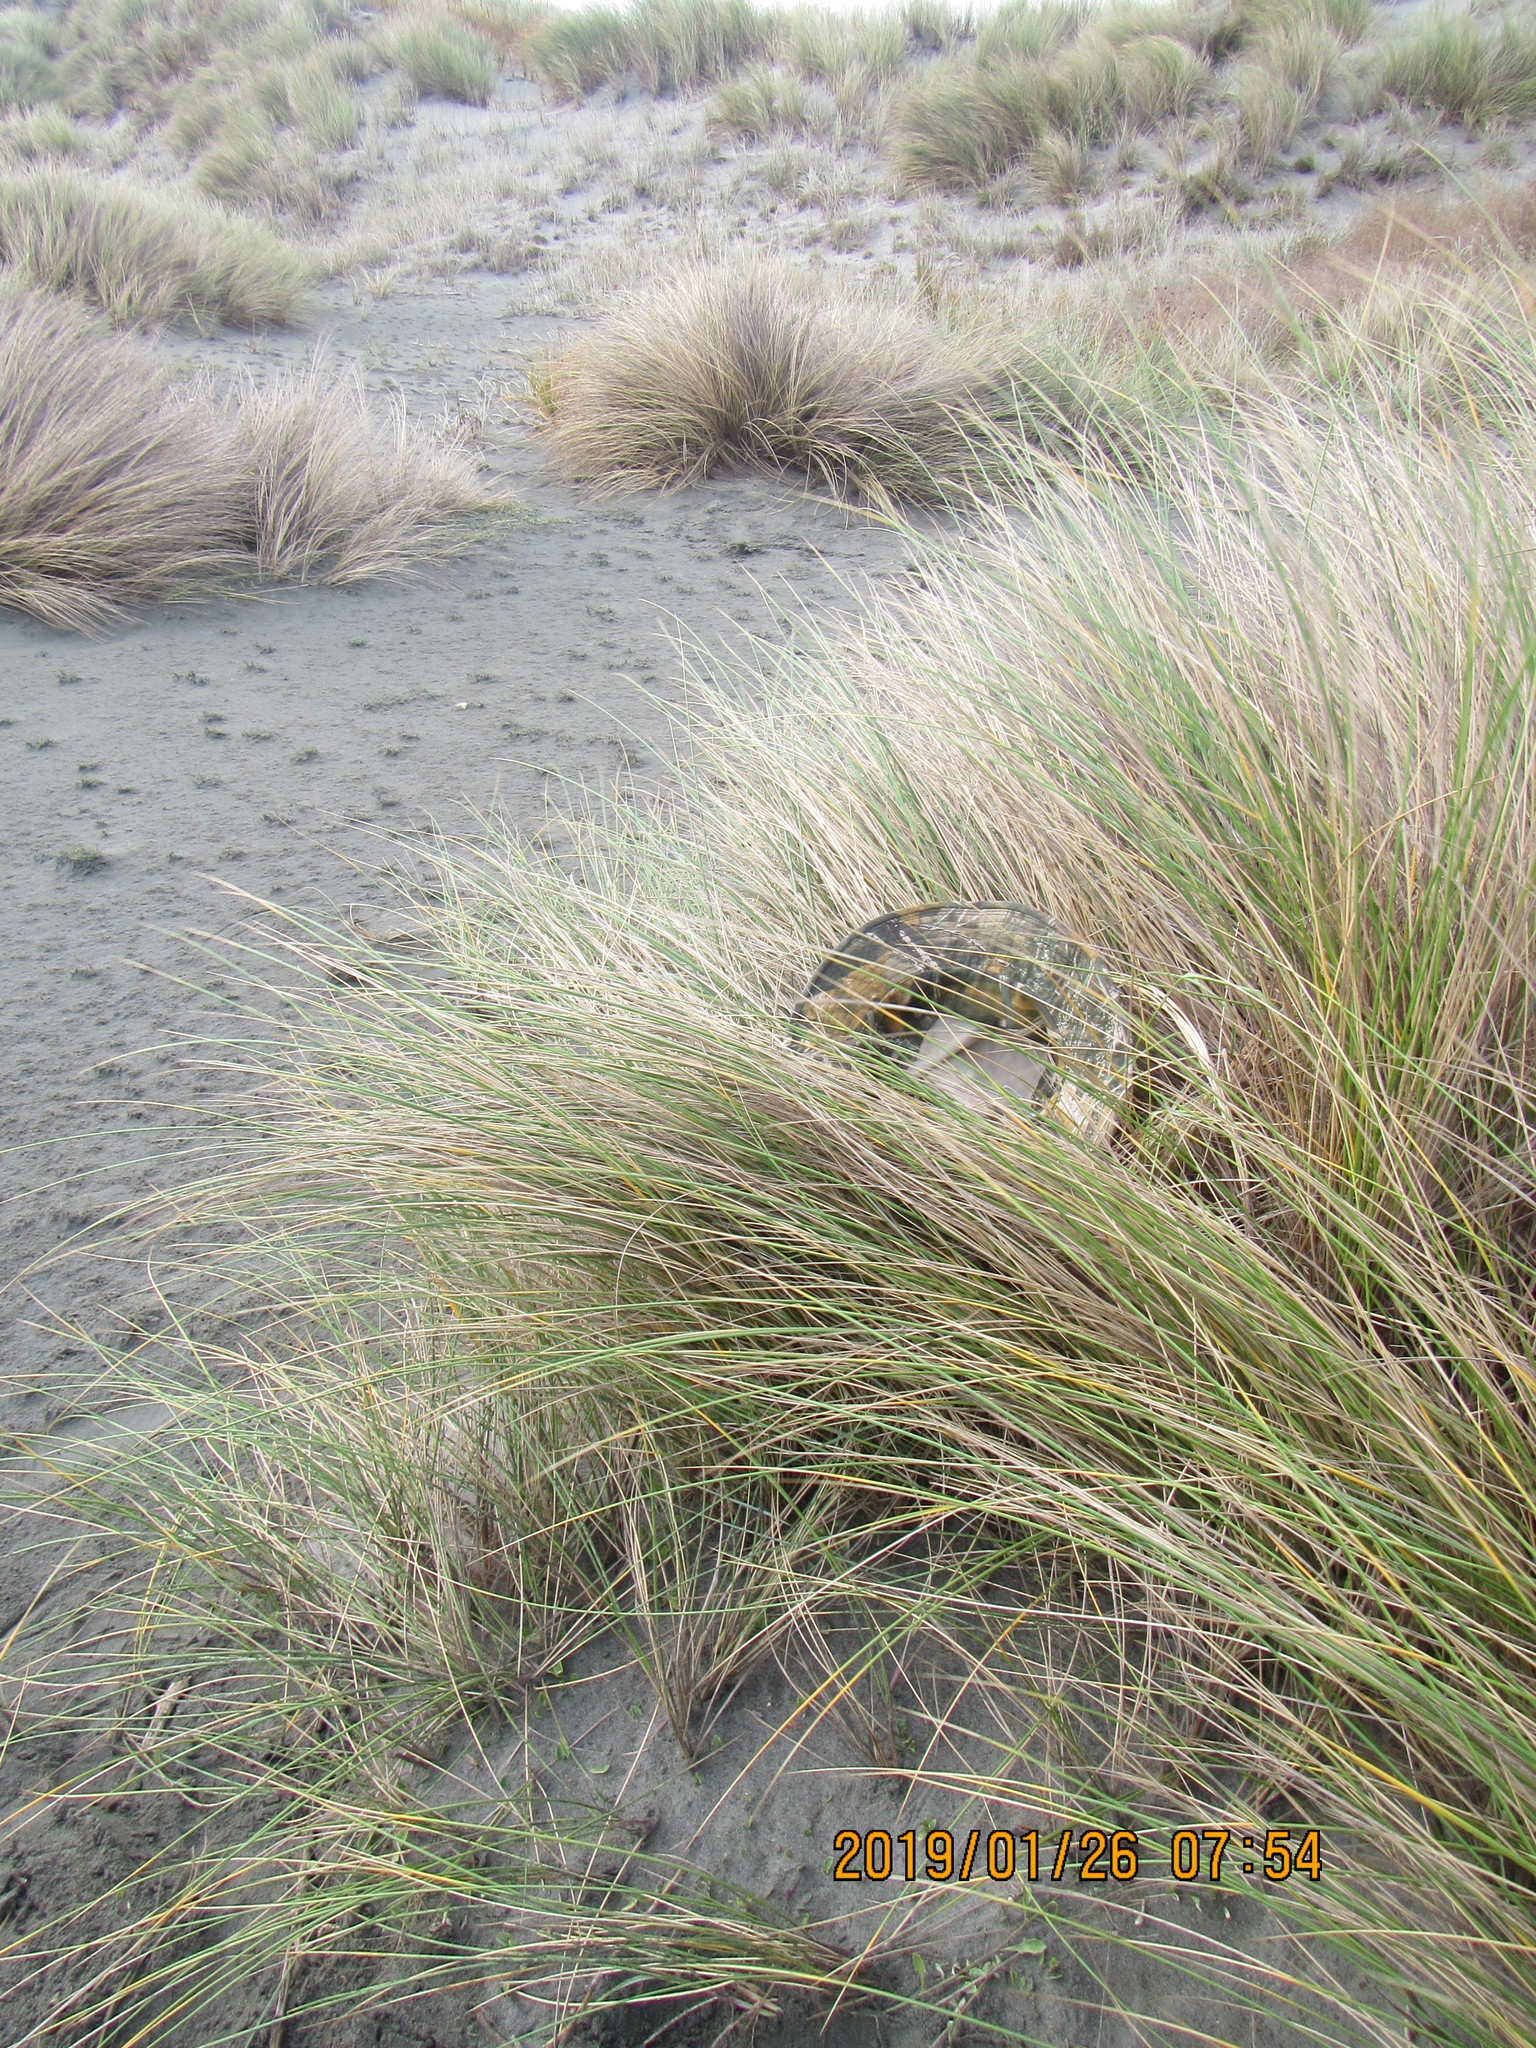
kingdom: Plantae
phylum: Tracheophyta
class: Magnoliopsida
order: Asterales
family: Campanulaceae
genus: Lobelia
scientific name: Lobelia anceps
